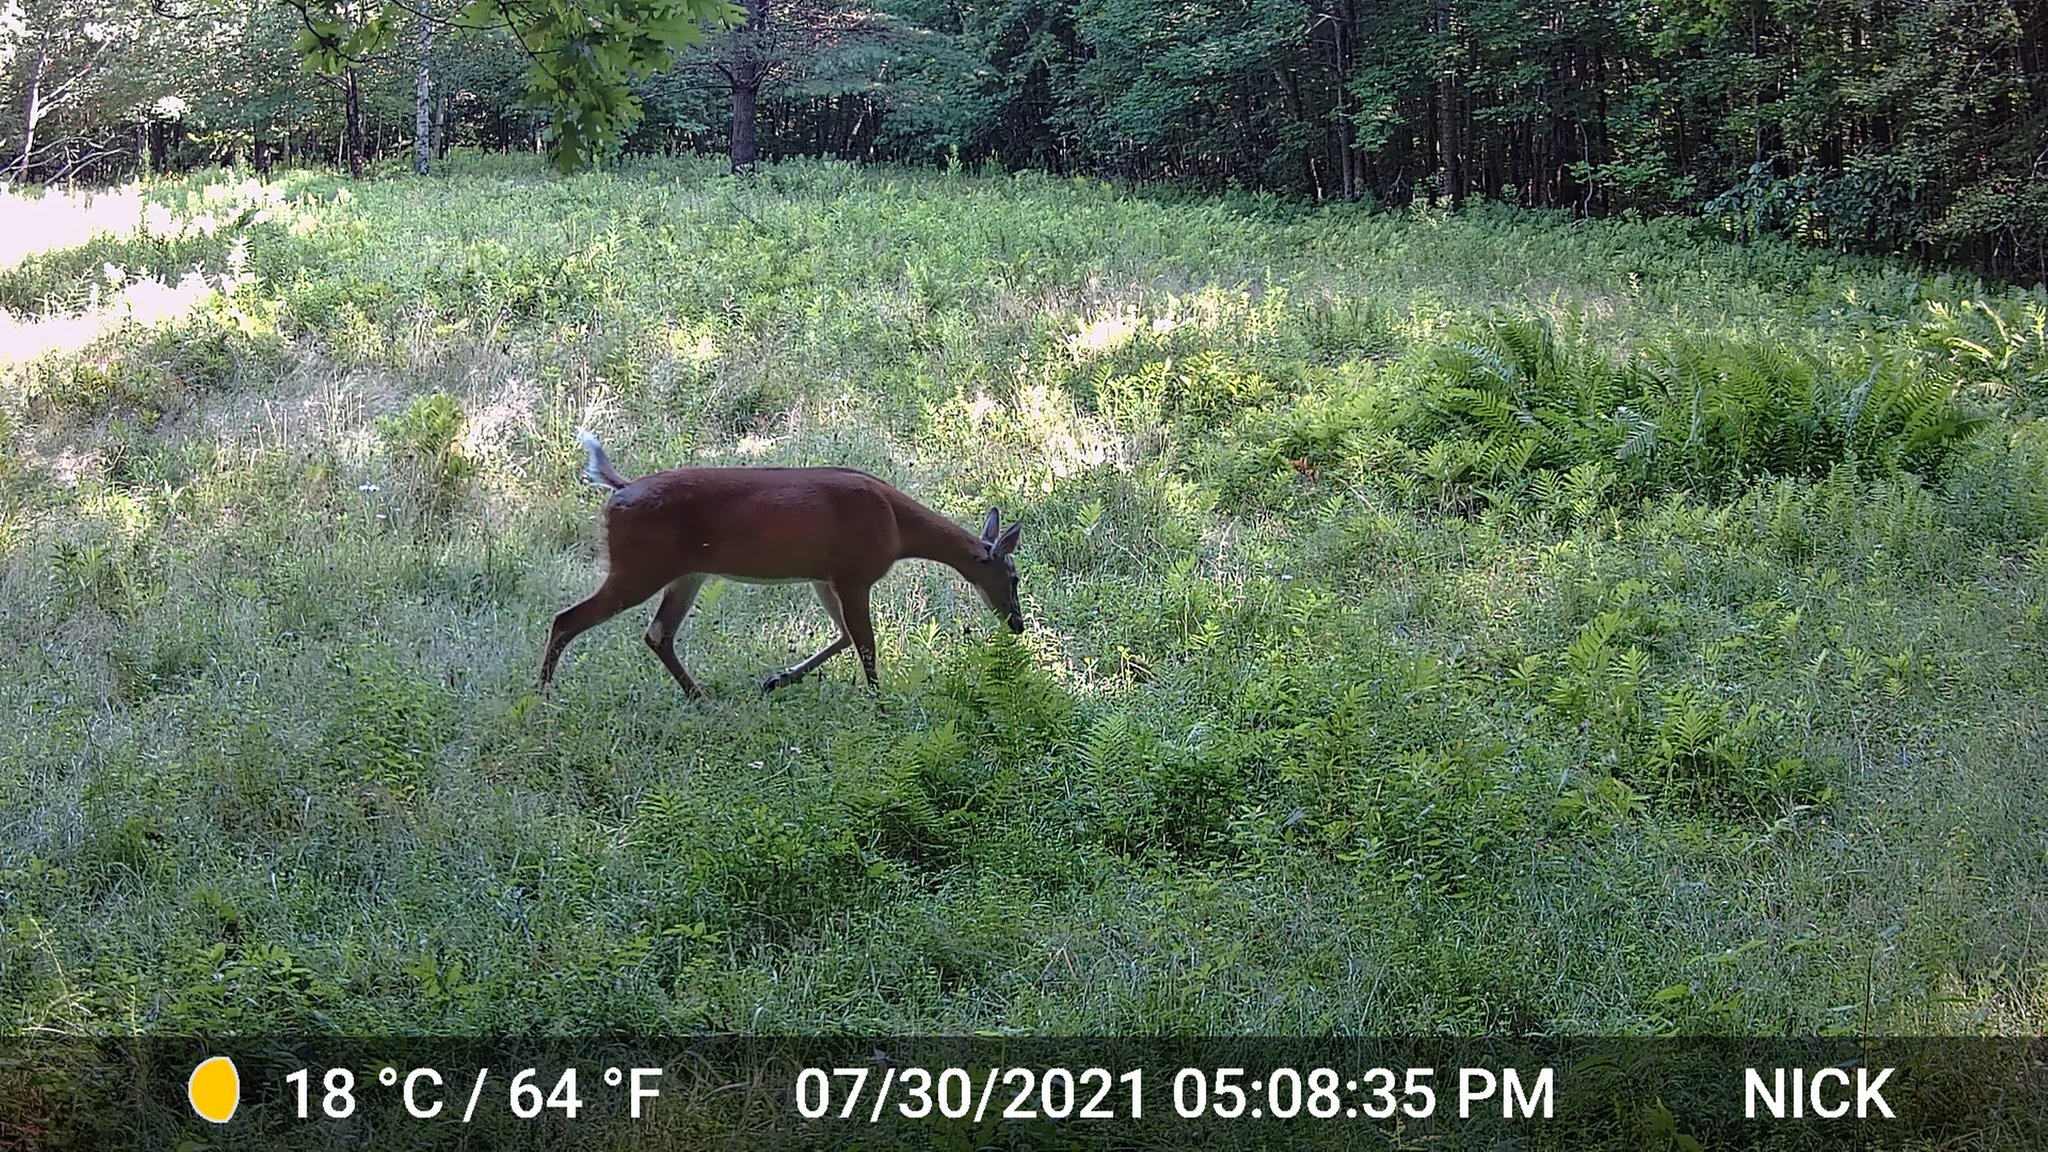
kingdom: Animalia
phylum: Chordata
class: Mammalia
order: Artiodactyla
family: Cervidae
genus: Odocoileus
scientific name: Odocoileus virginianus
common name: White-tailed deer
